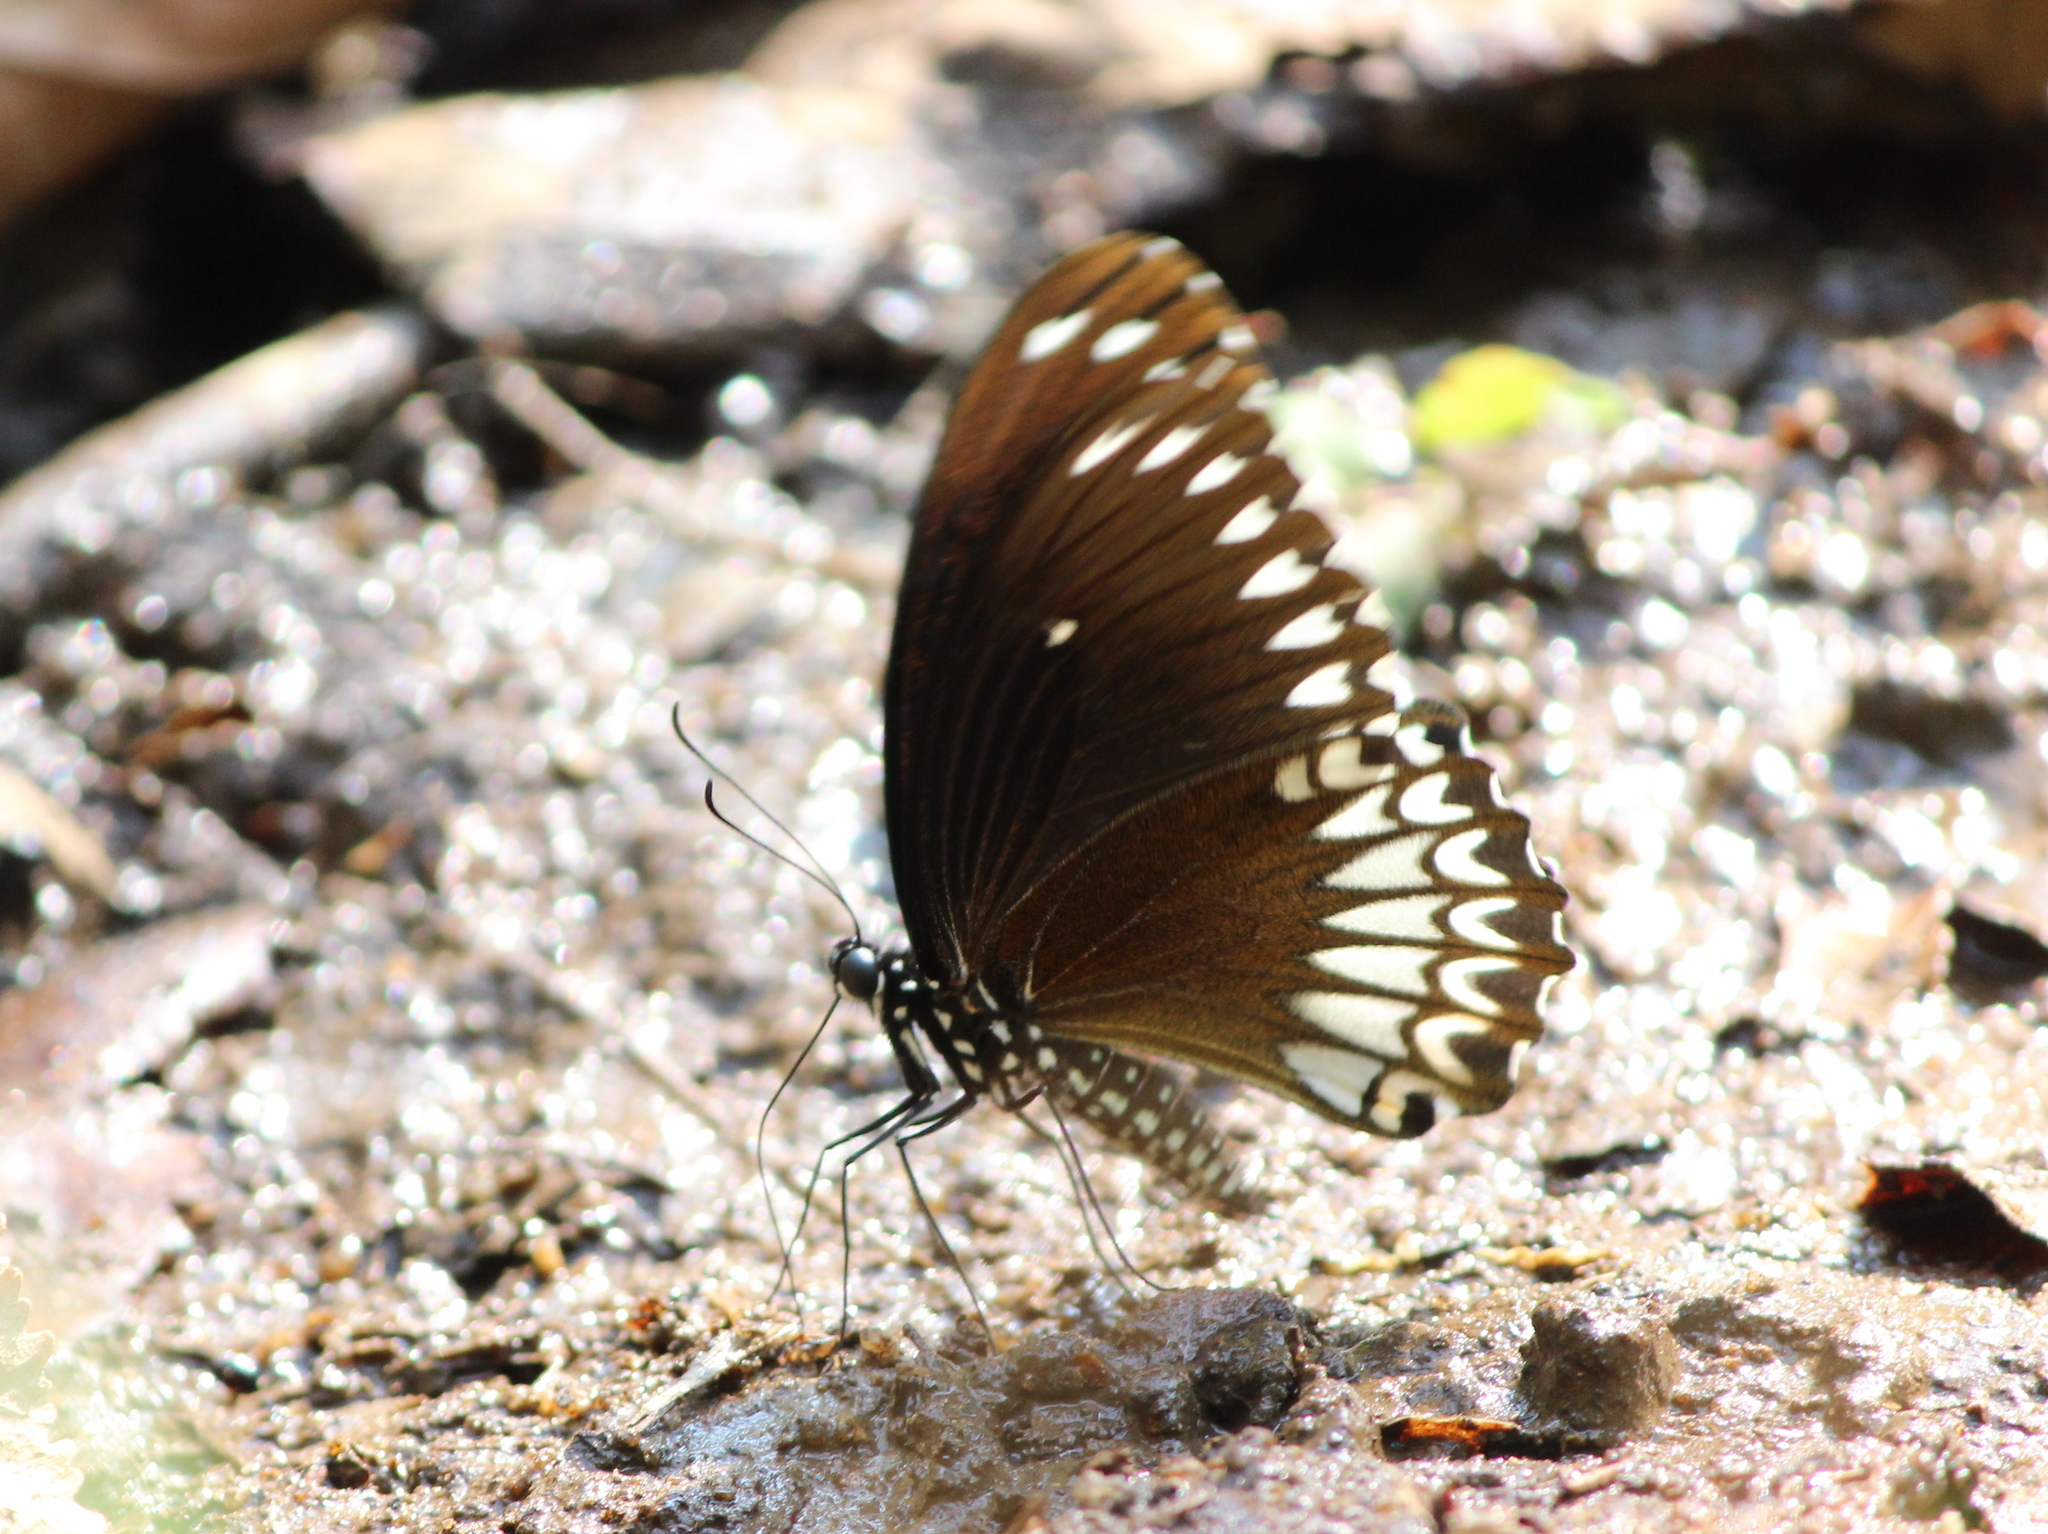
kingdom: Animalia
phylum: Arthropoda
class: Insecta
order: Lepidoptera
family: Papilionidae
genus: Papilio
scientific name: Papilio dravidarum
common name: Malabar raven
